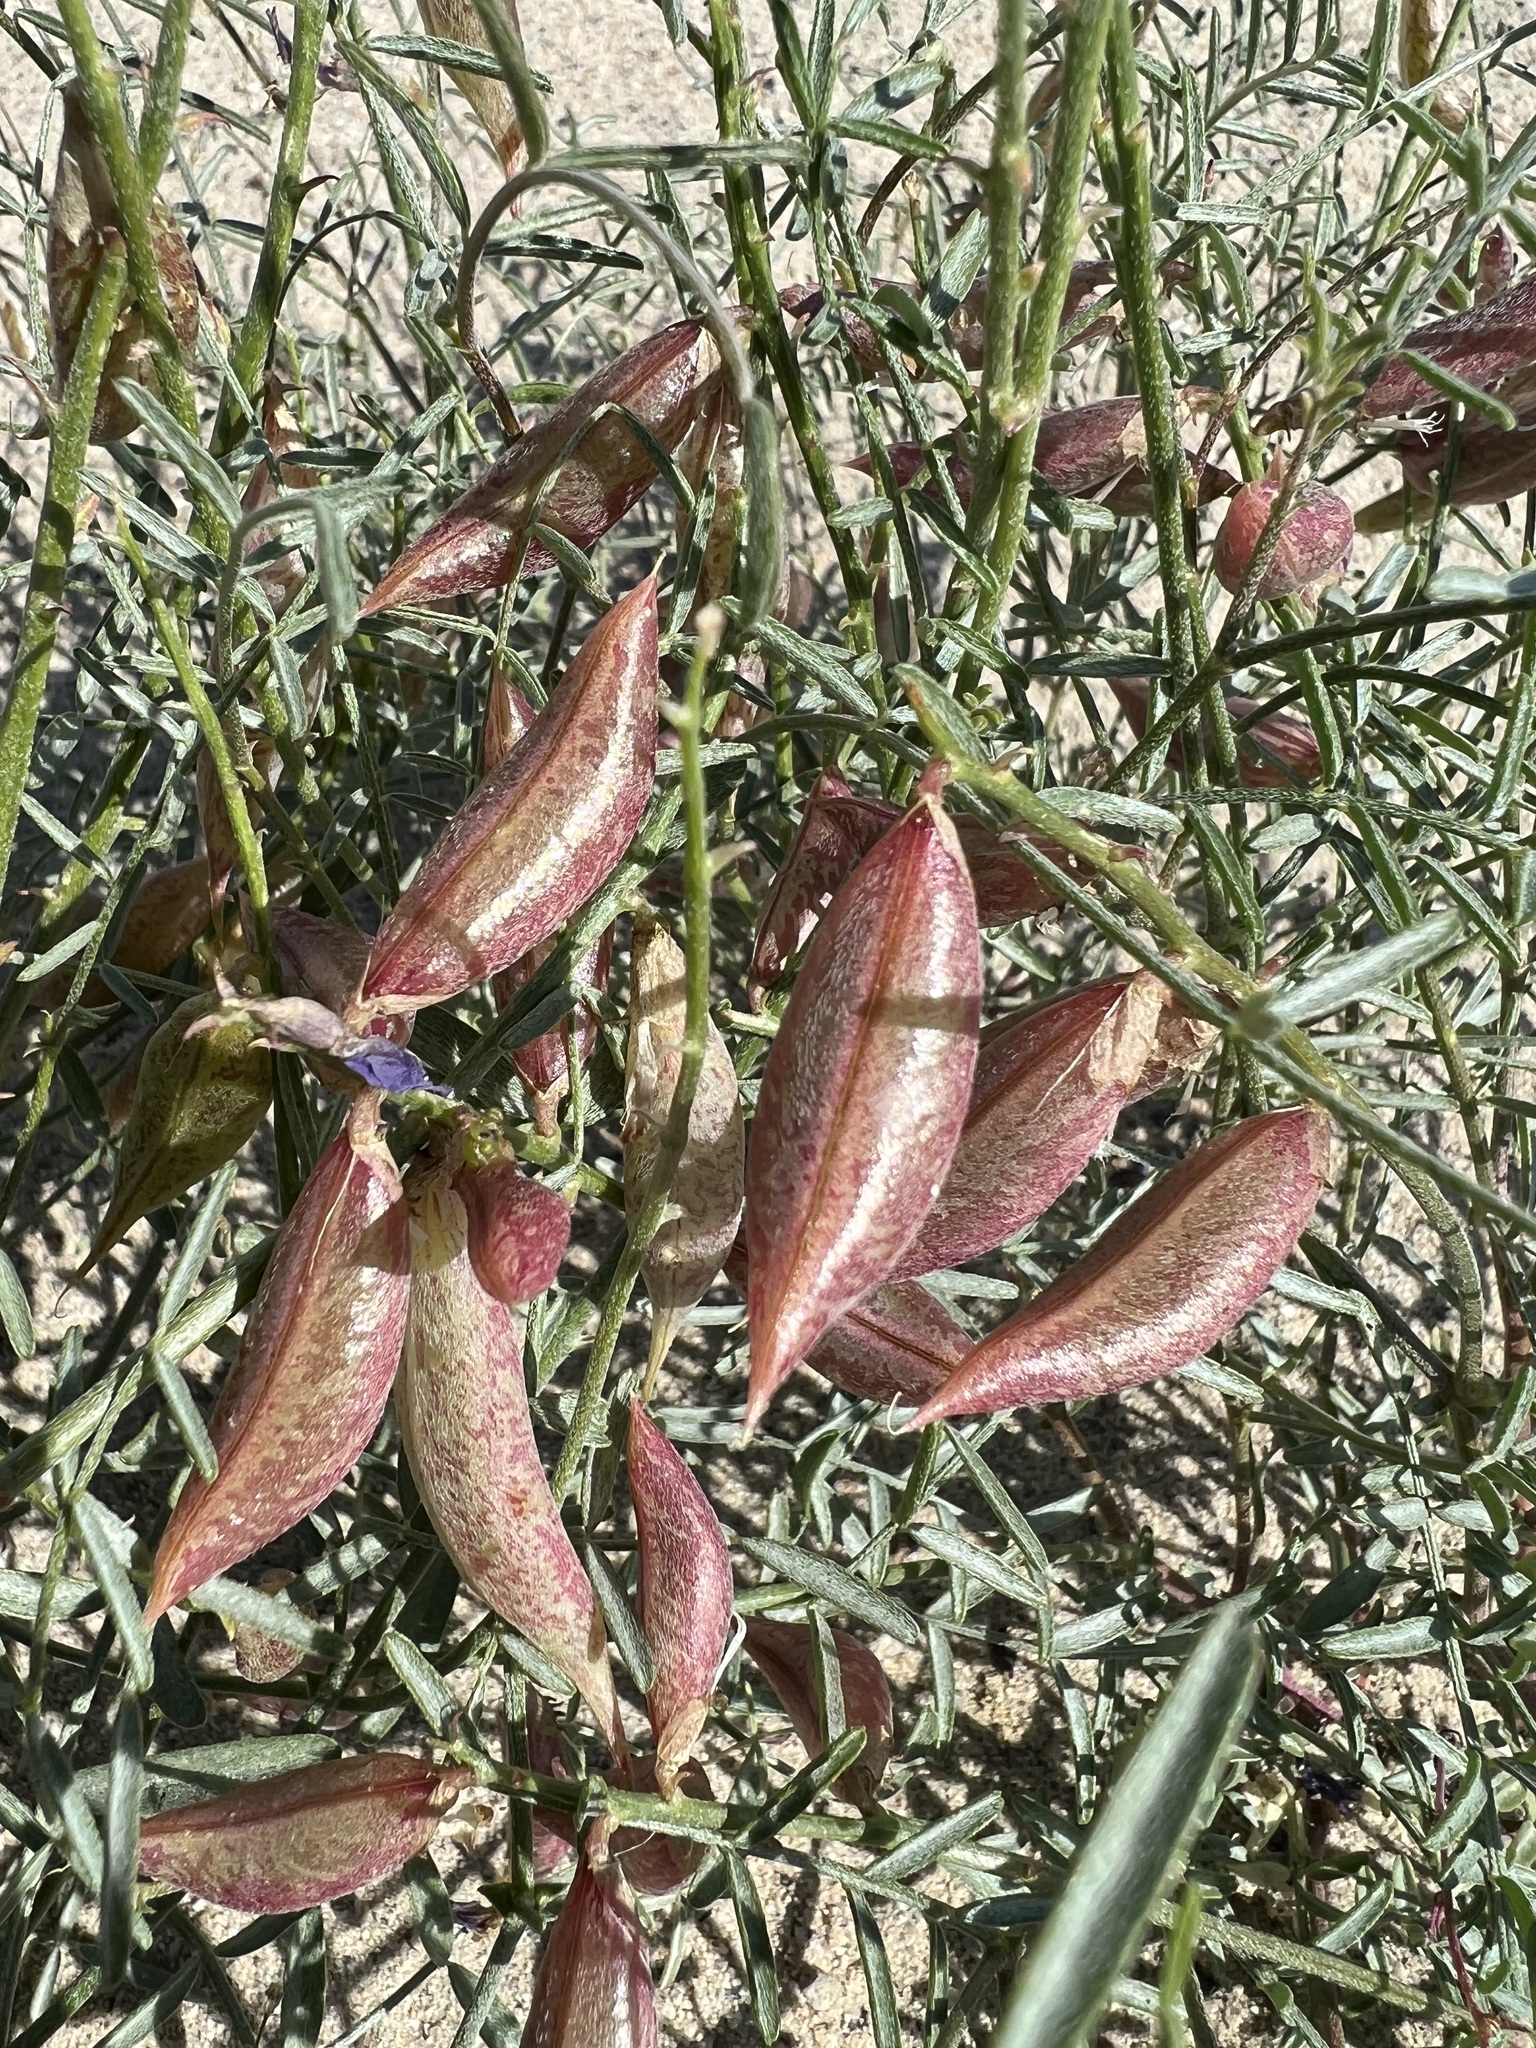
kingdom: Plantae
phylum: Tracheophyta
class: Magnoliopsida
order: Fabales
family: Fabaceae
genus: Astragalus
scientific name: Astragalus casei
